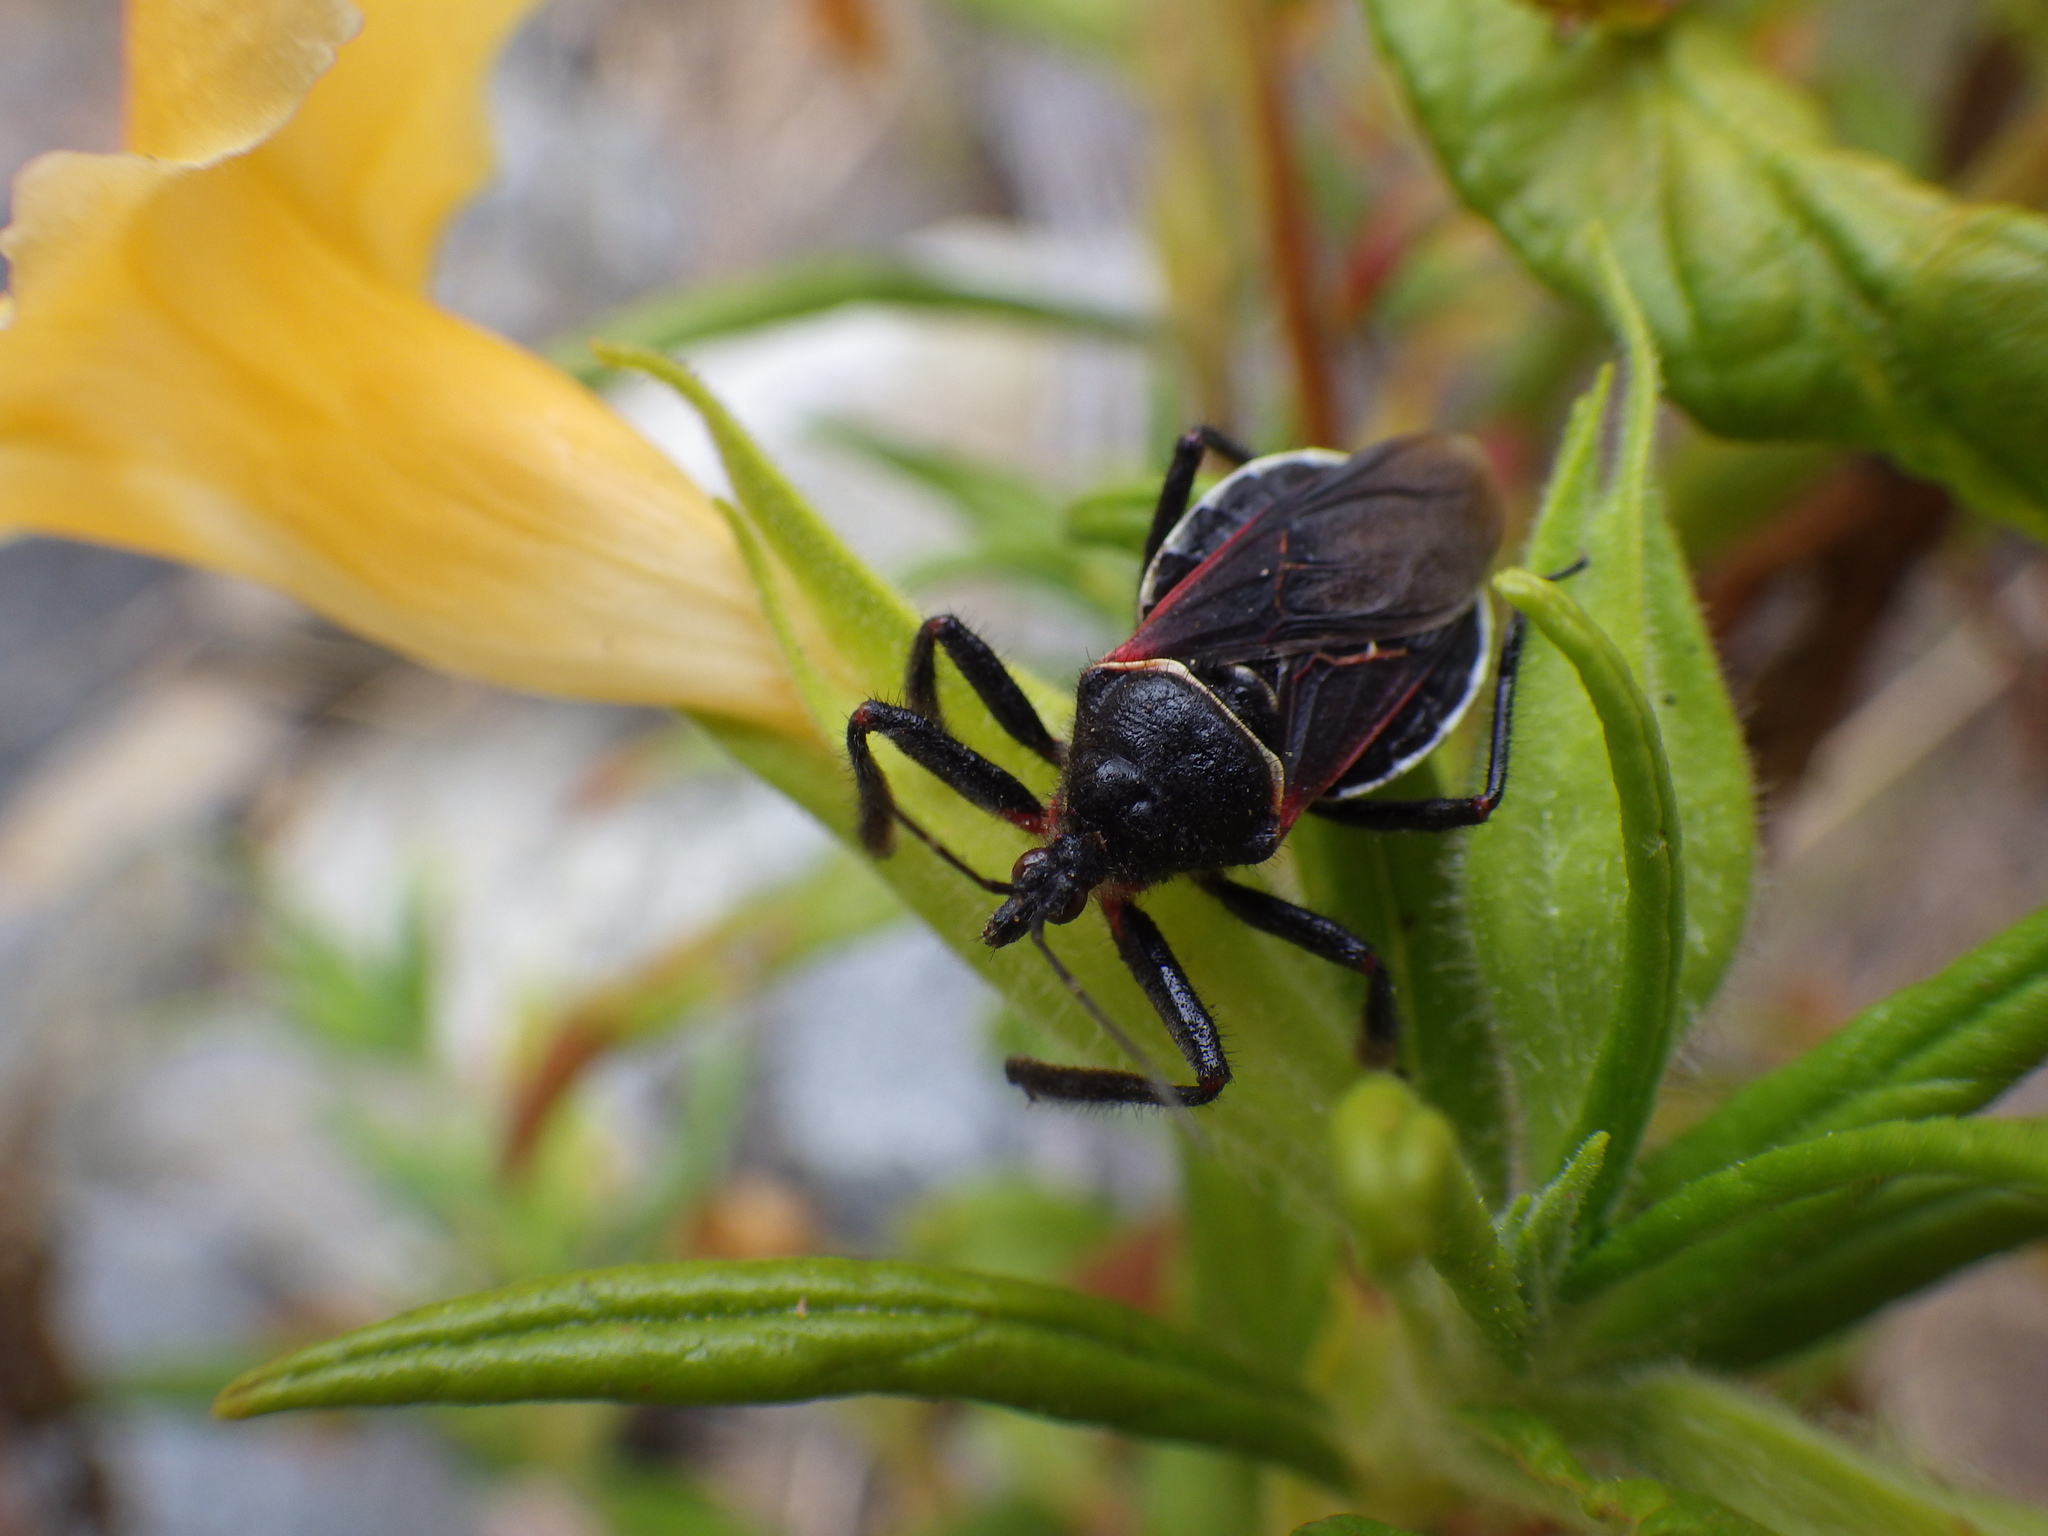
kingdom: Animalia
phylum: Arthropoda
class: Insecta
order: Hemiptera
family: Reduviidae
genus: Apiomerus
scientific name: Apiomerus californicus
